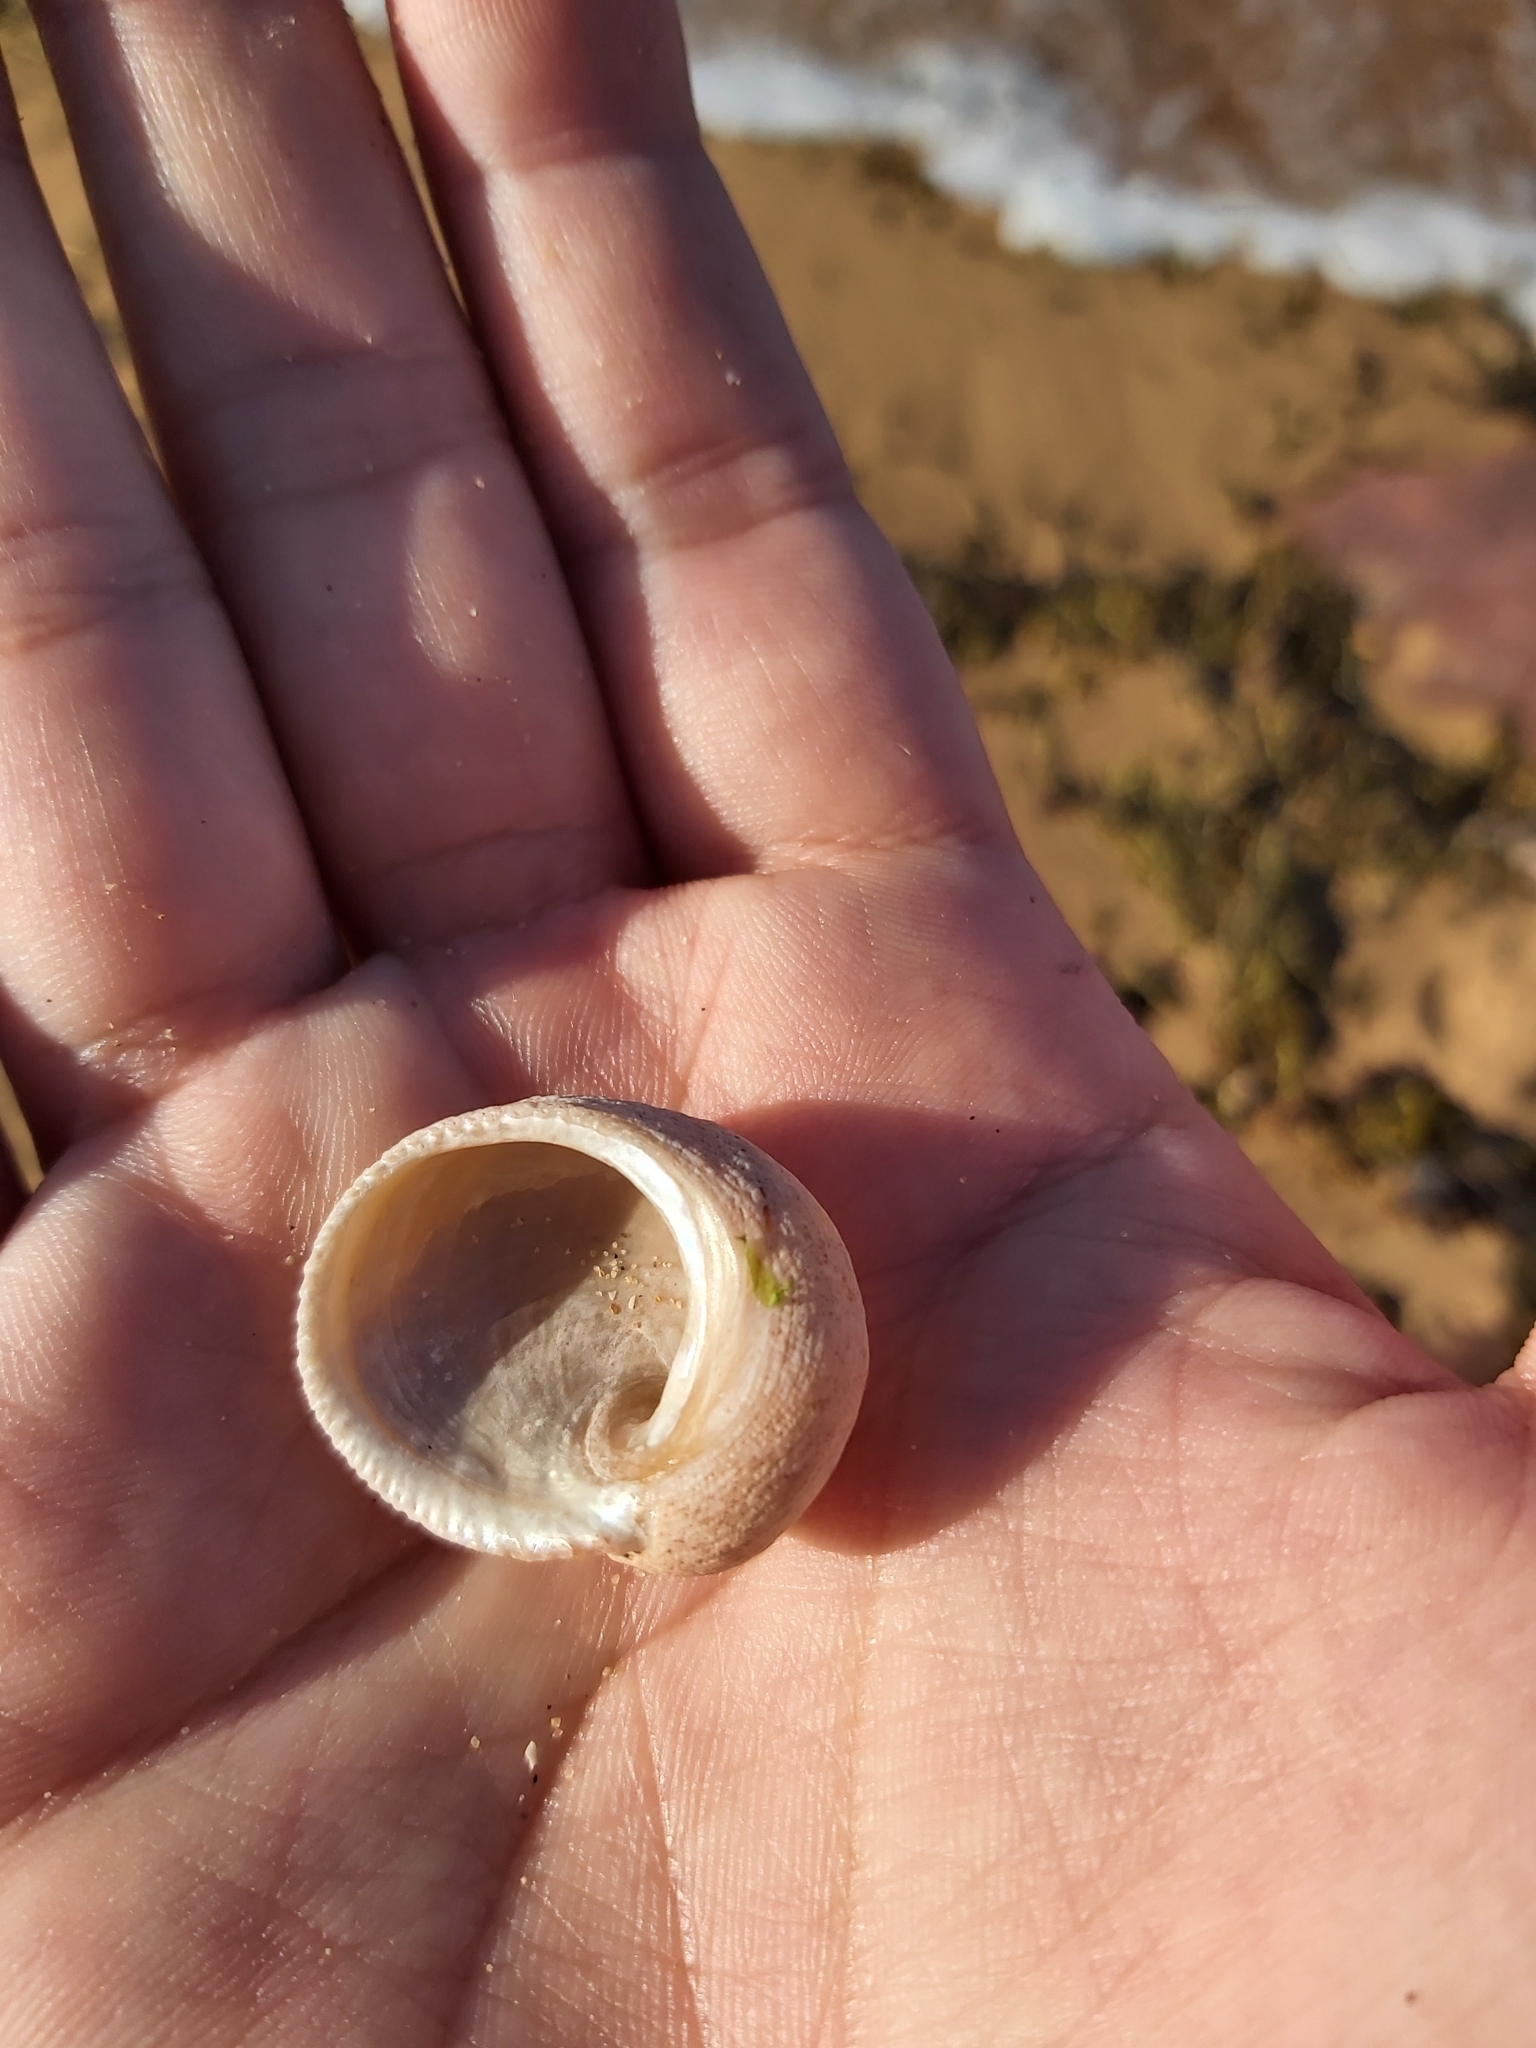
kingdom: Animalia
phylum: Mollusca
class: Gastropoda
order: Seguenziida
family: Chilodontaidae
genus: Granata
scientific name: Granata imbricata
